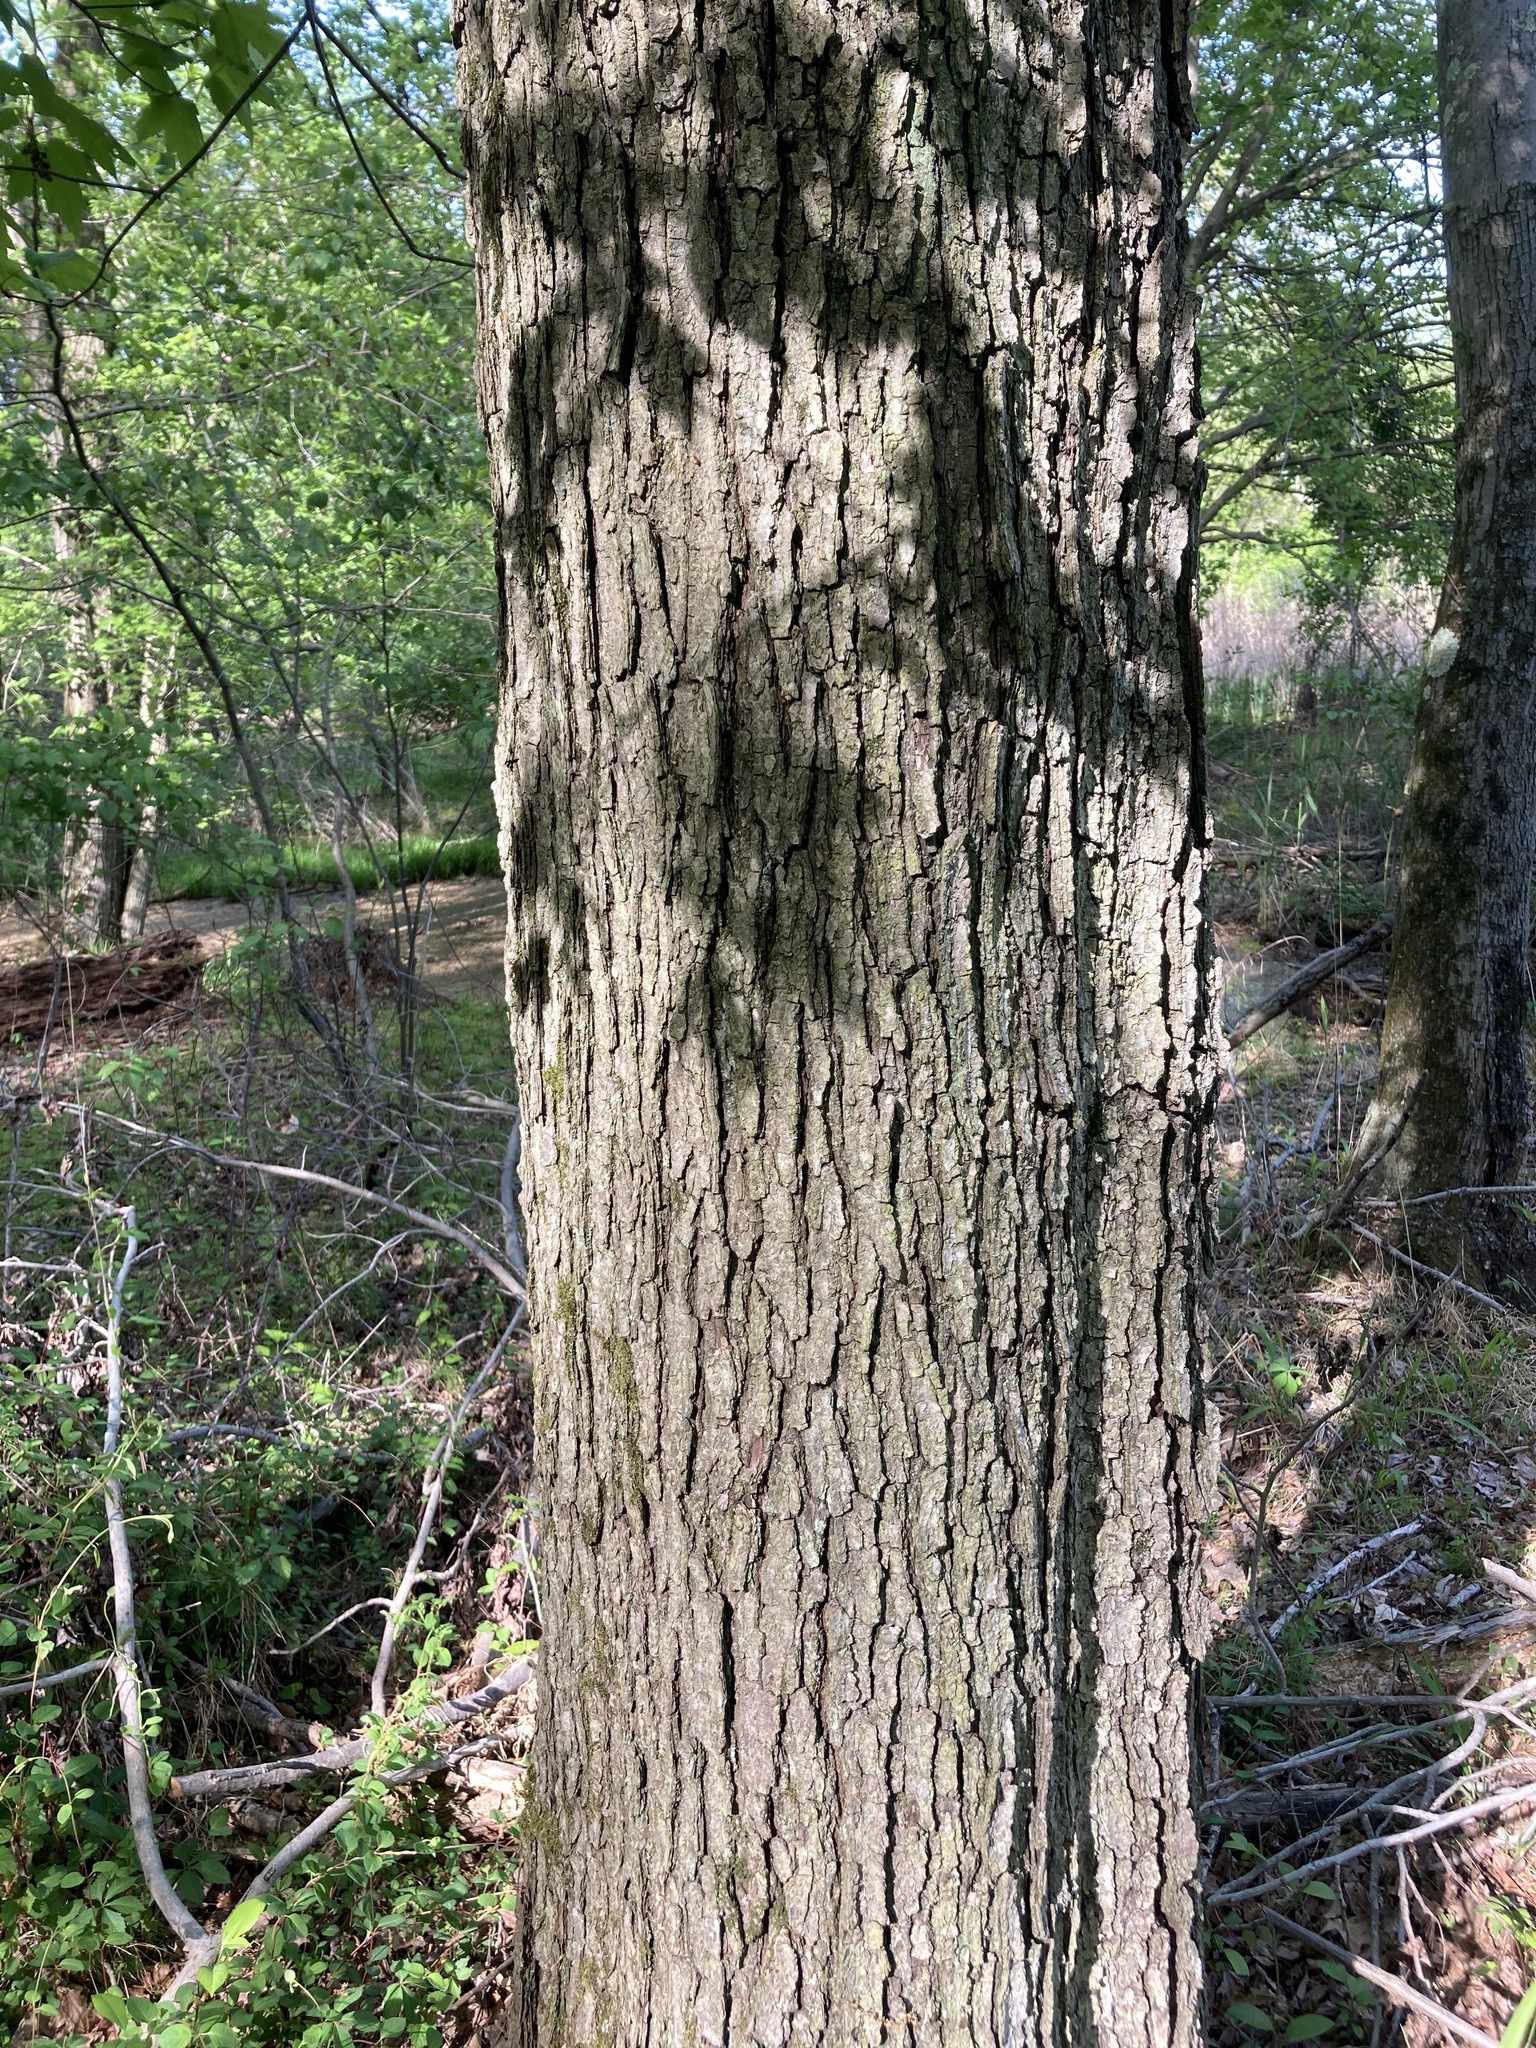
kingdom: Plantae
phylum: Tracheophyta
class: Magnoliopsida
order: Sapindales
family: Sapindaceae
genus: Acer
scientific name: Acer rubrum
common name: Red maple
